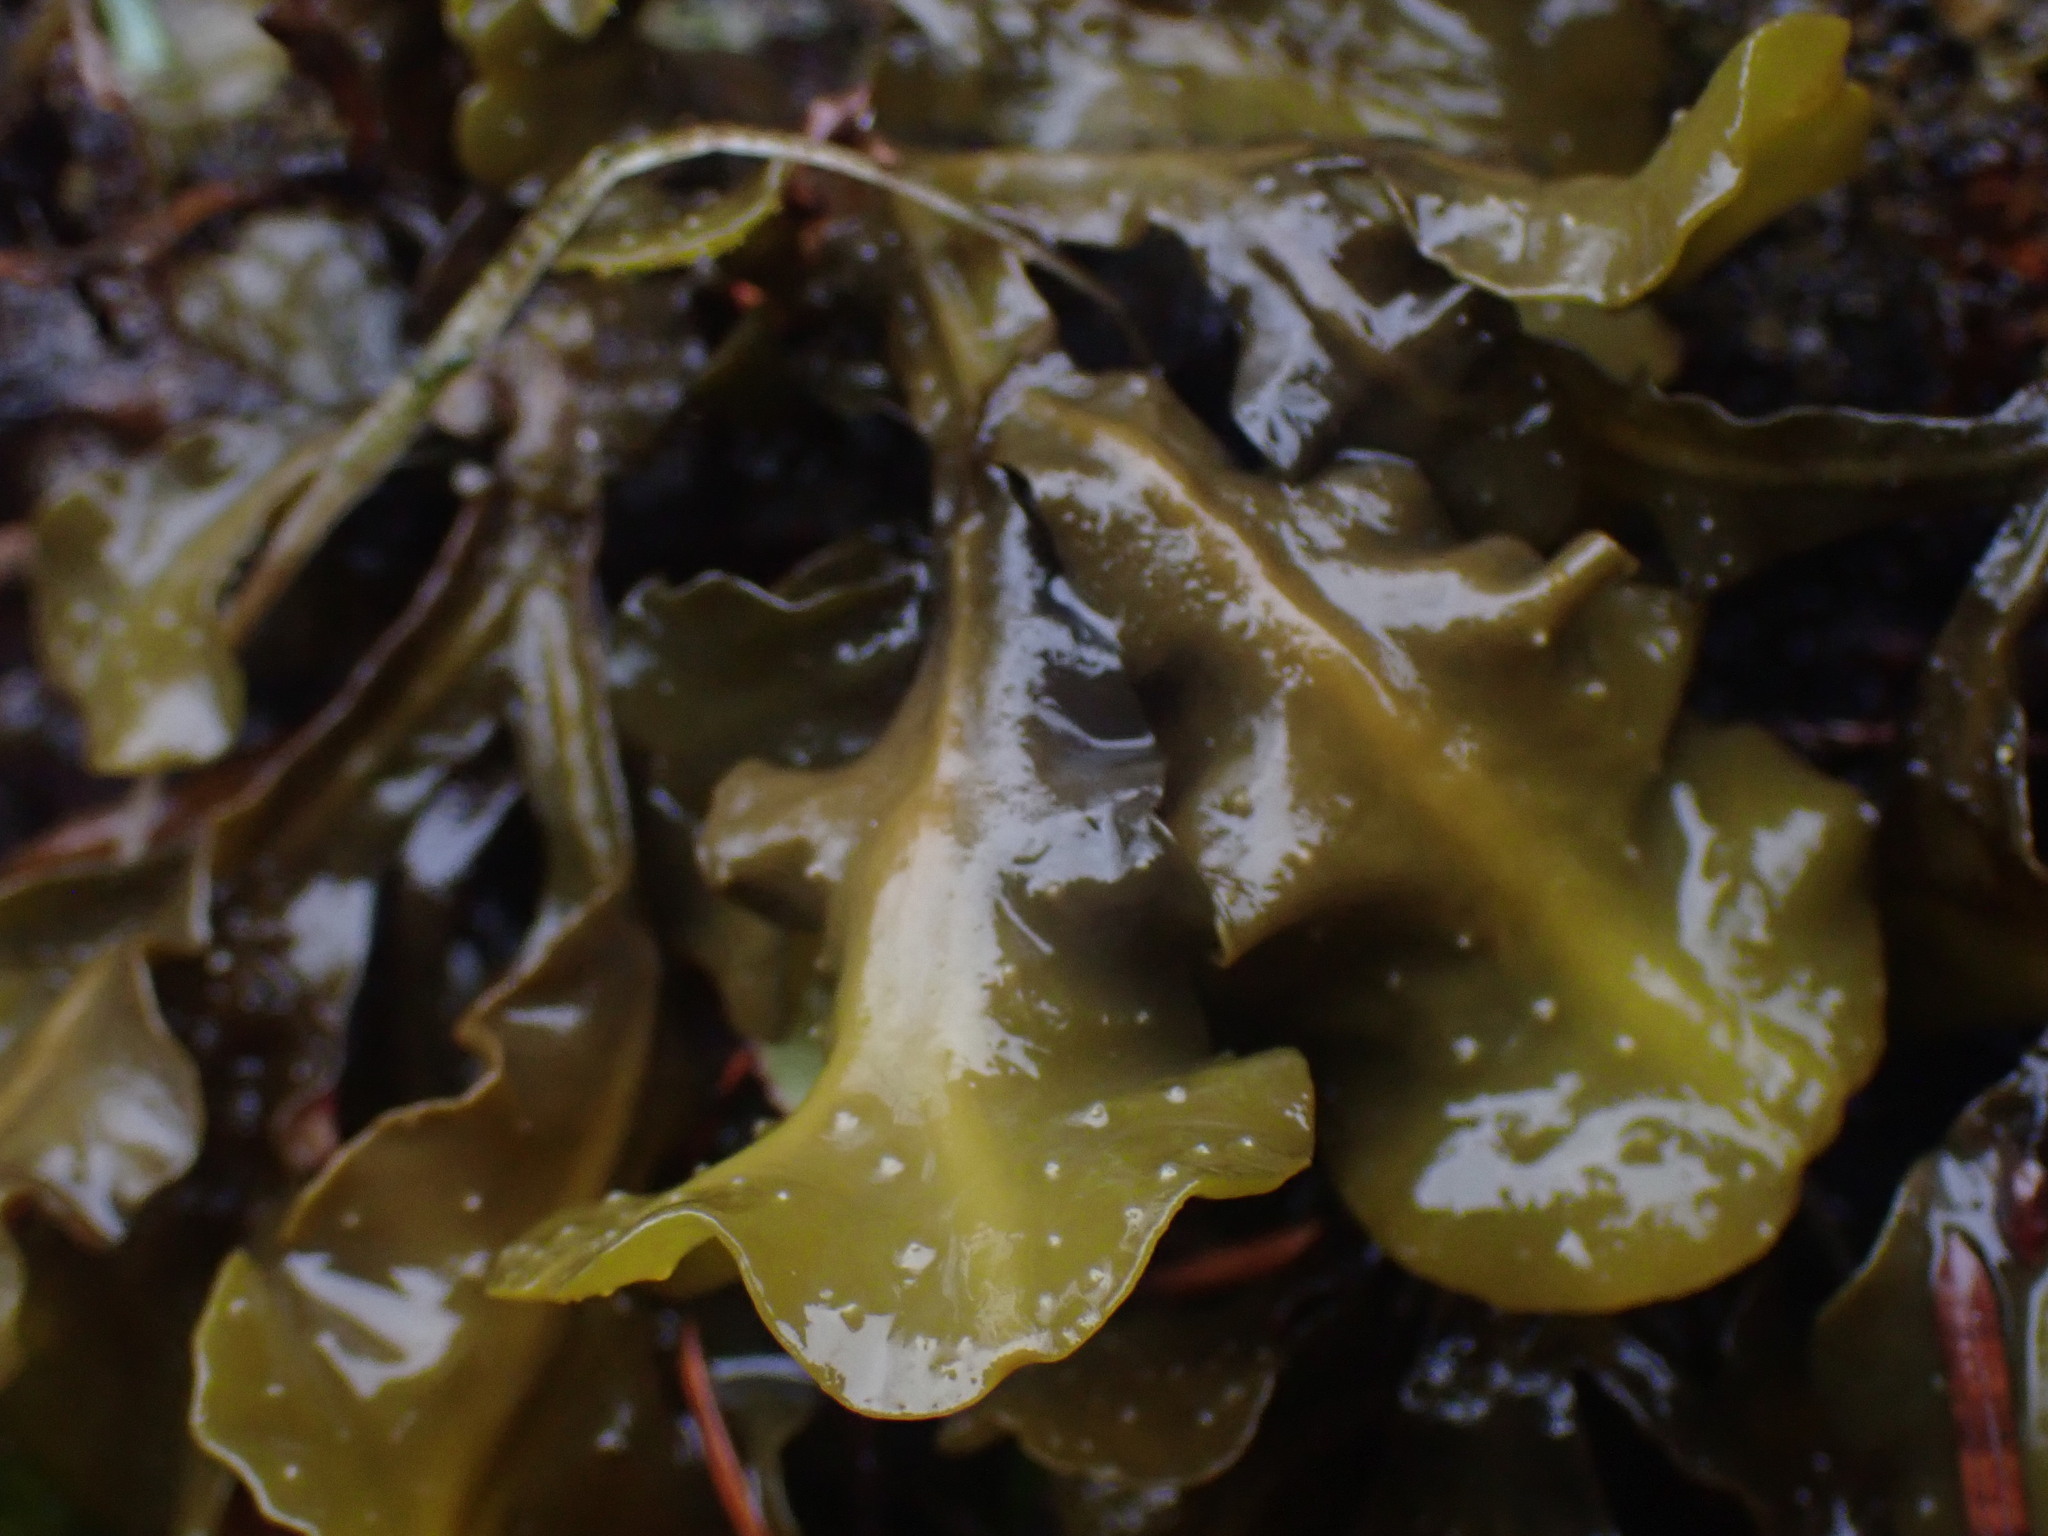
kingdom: Chromista
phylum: Ochrophyta
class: Phaeophyceae
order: Fucales
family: Fucaceae
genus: Fucus
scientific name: Fucus distichus
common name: Rockweed
